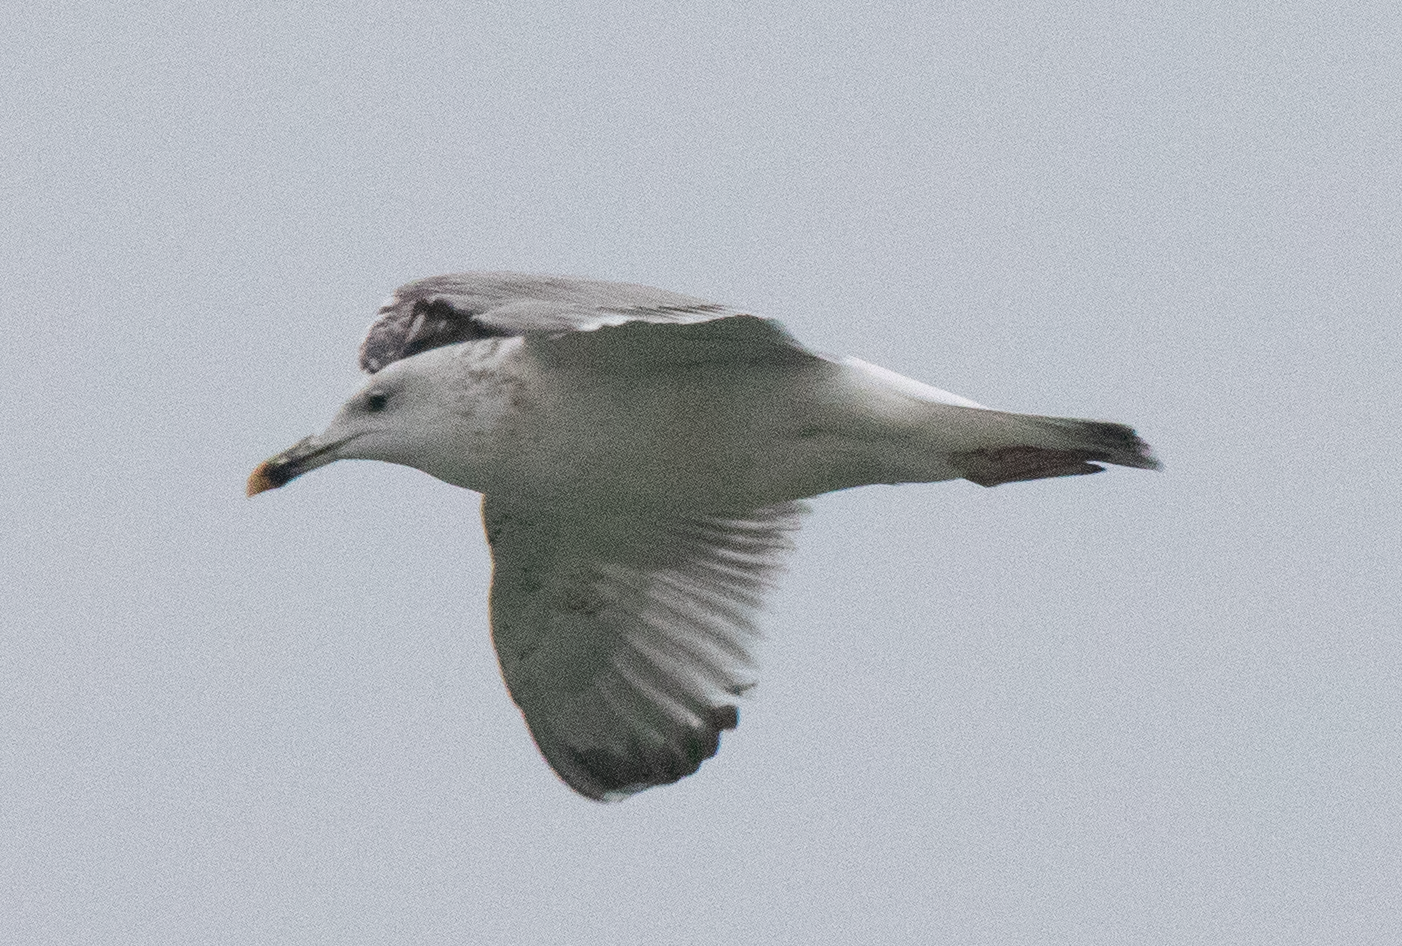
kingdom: Animalia
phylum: Chordata
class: Aves
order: Charadriiformes
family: Laridae
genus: Larus
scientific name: Larus cachinnans
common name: Caspian gull
